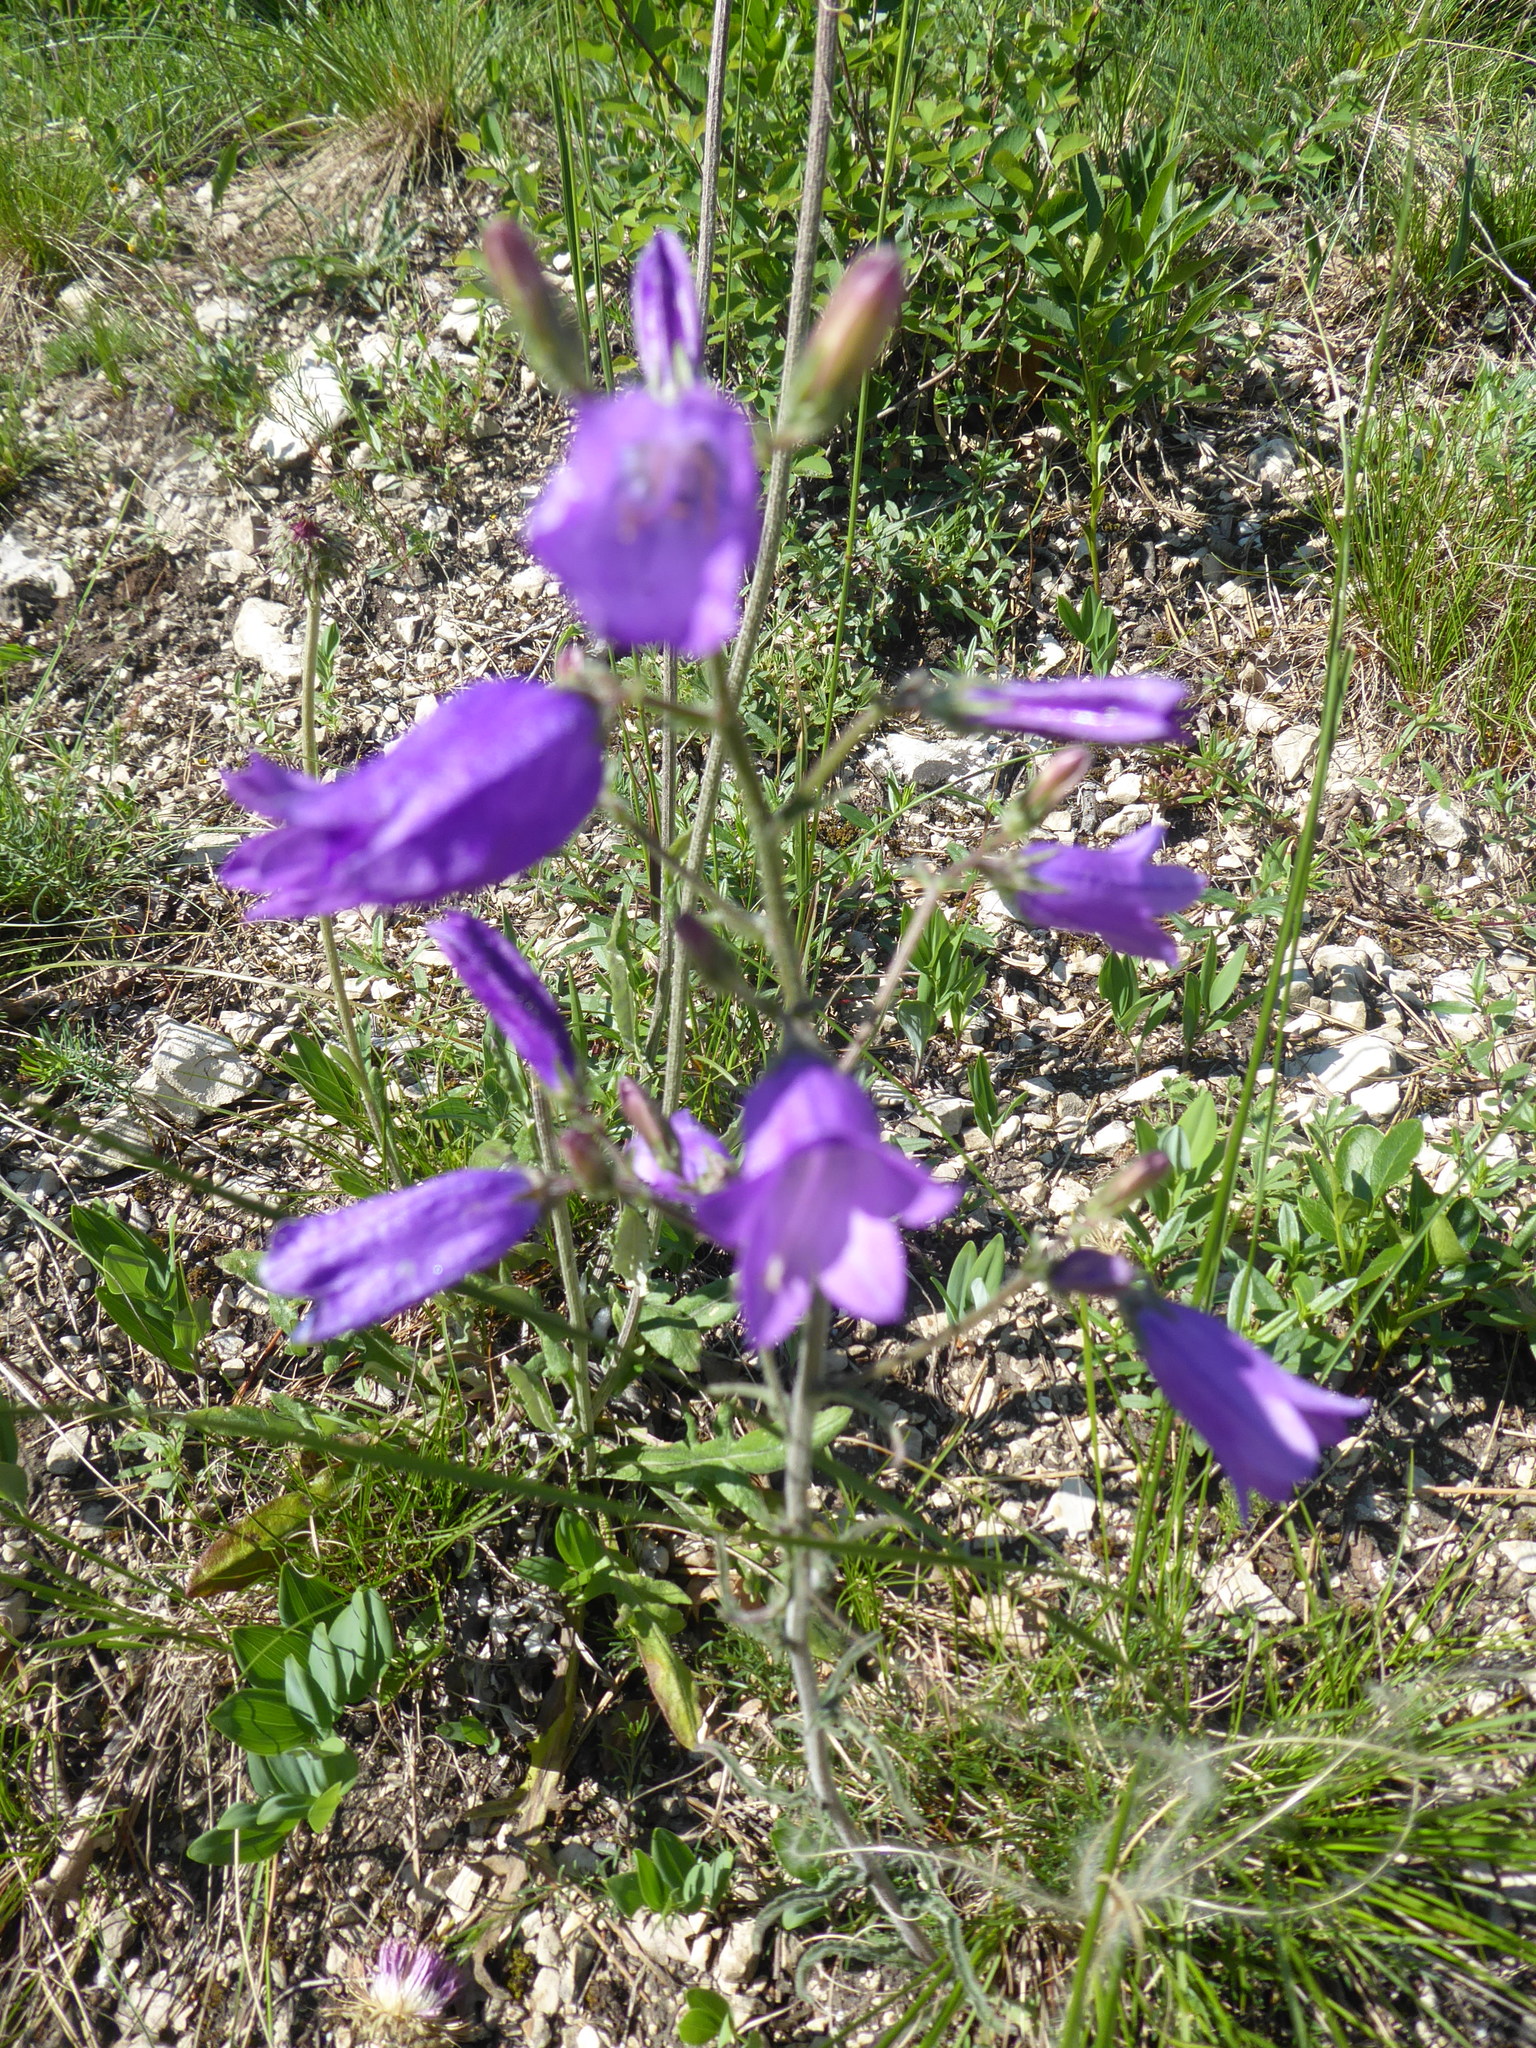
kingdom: Plantae
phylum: Tracheophyta
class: Magnoliopsida
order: Asterales
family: Campanulaceae
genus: Campanula
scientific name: Campanula sibirica
